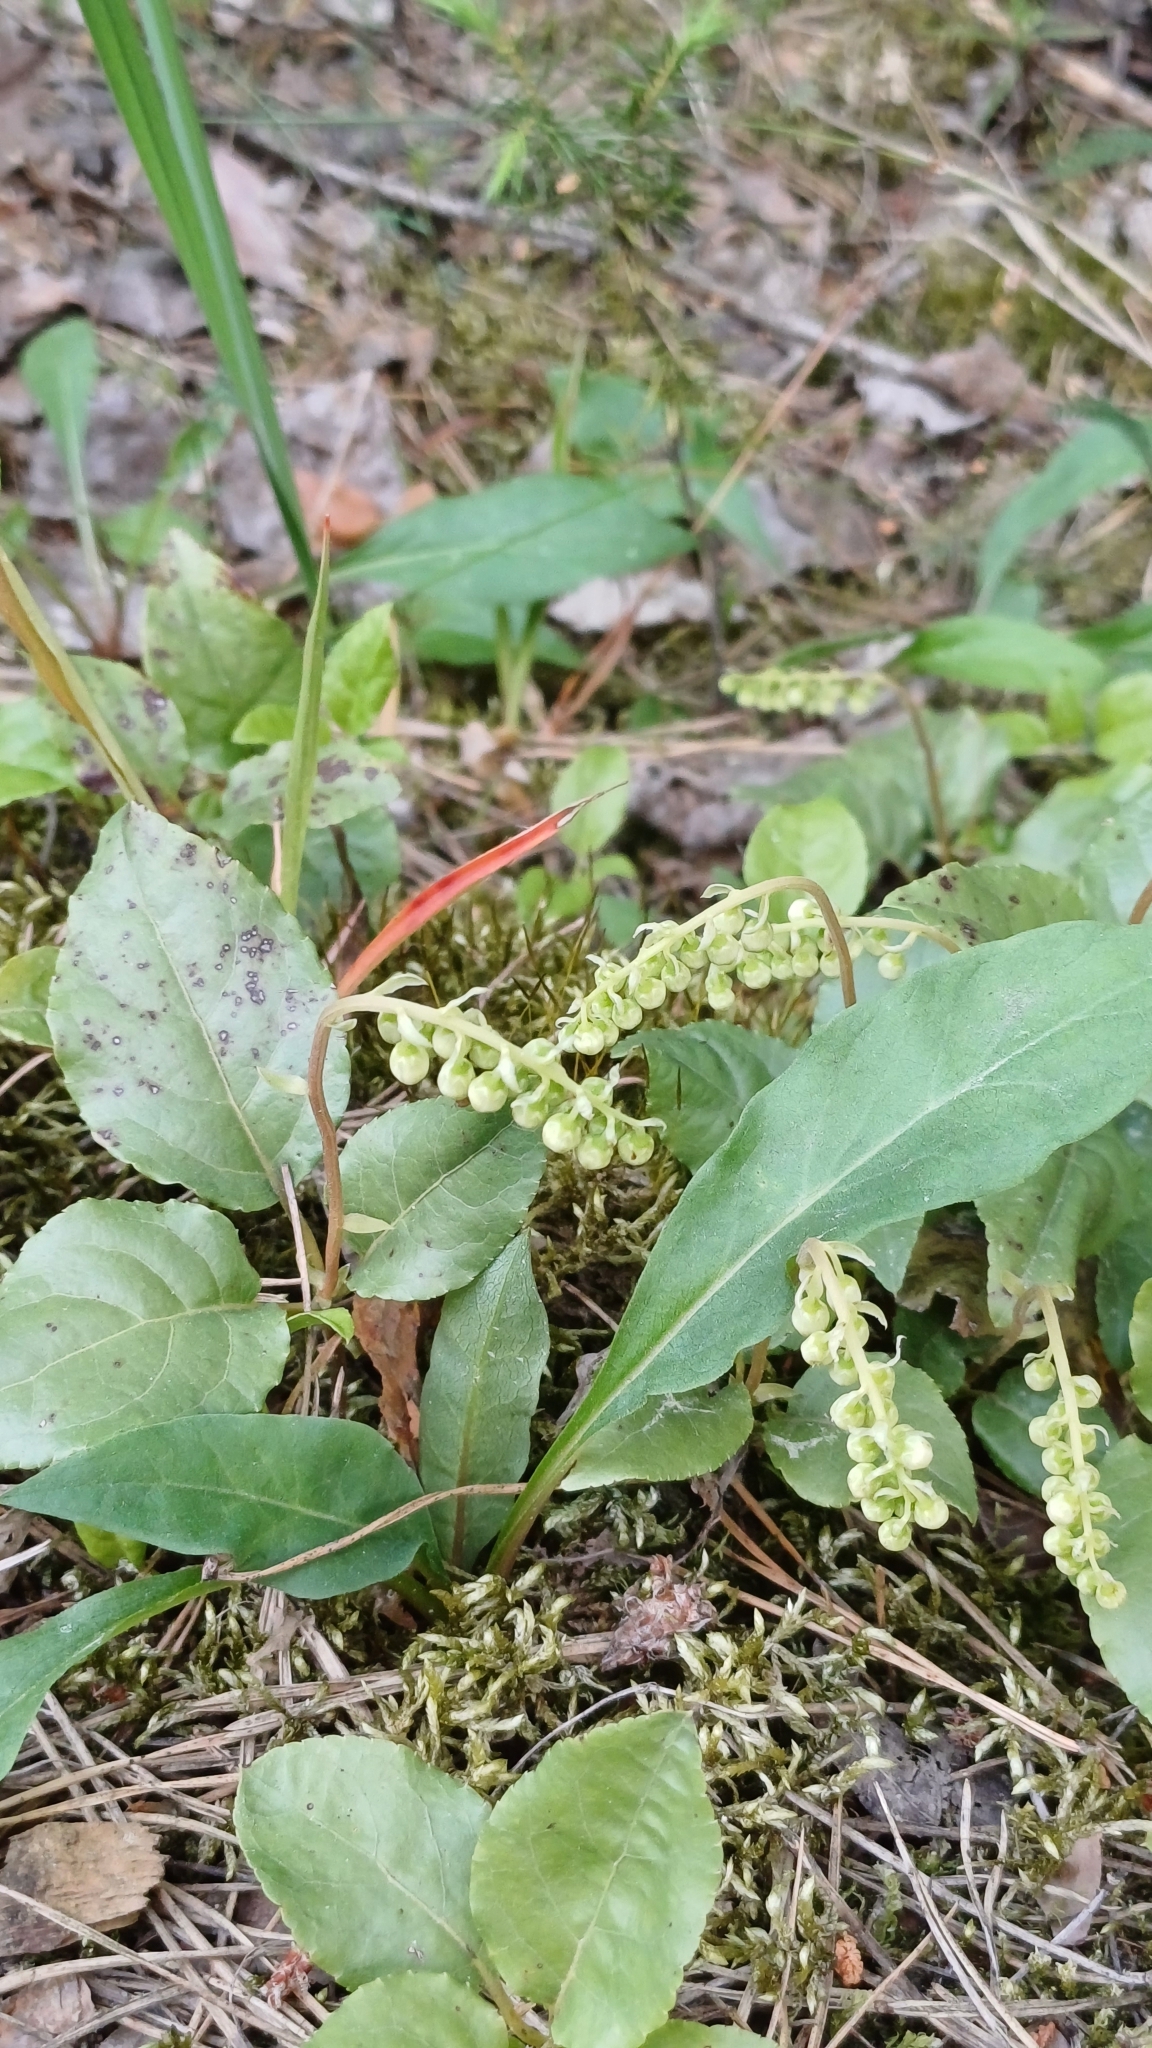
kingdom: Plantae
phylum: Tracheophyta
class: Magnoliopsida
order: Ericales
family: Ericaceae
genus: Orthilia
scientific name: Orthilia secunda
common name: One-sided orthilia
